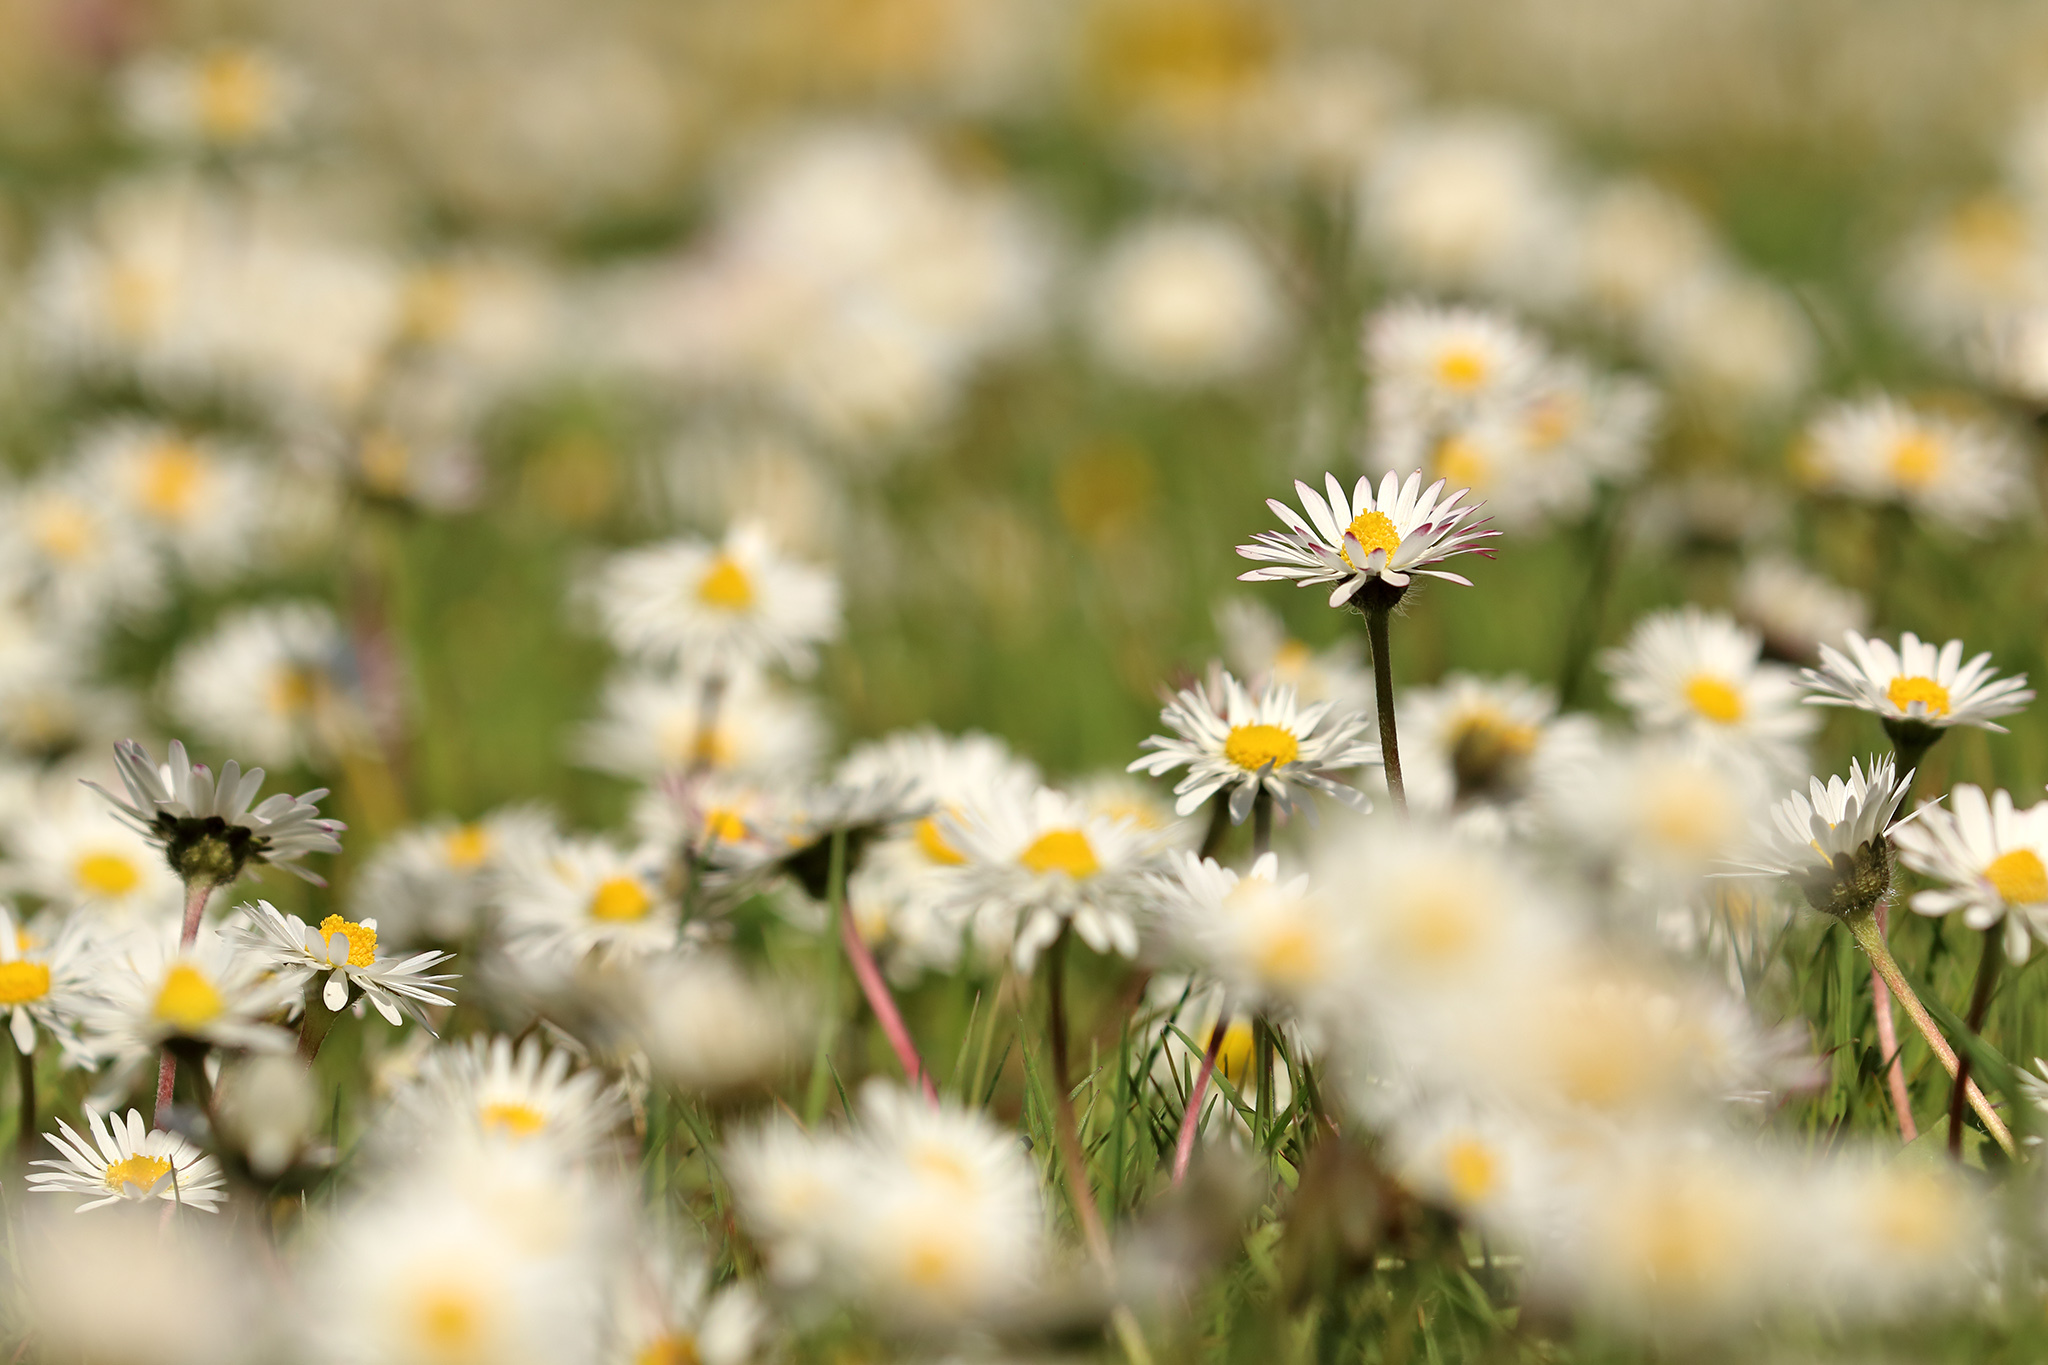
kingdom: Plantae
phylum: Tracheophyta
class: Magnoliopsida
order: Asterales
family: Asteraceae
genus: Bellis
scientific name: Bellis perennis
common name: Lawndaisy
